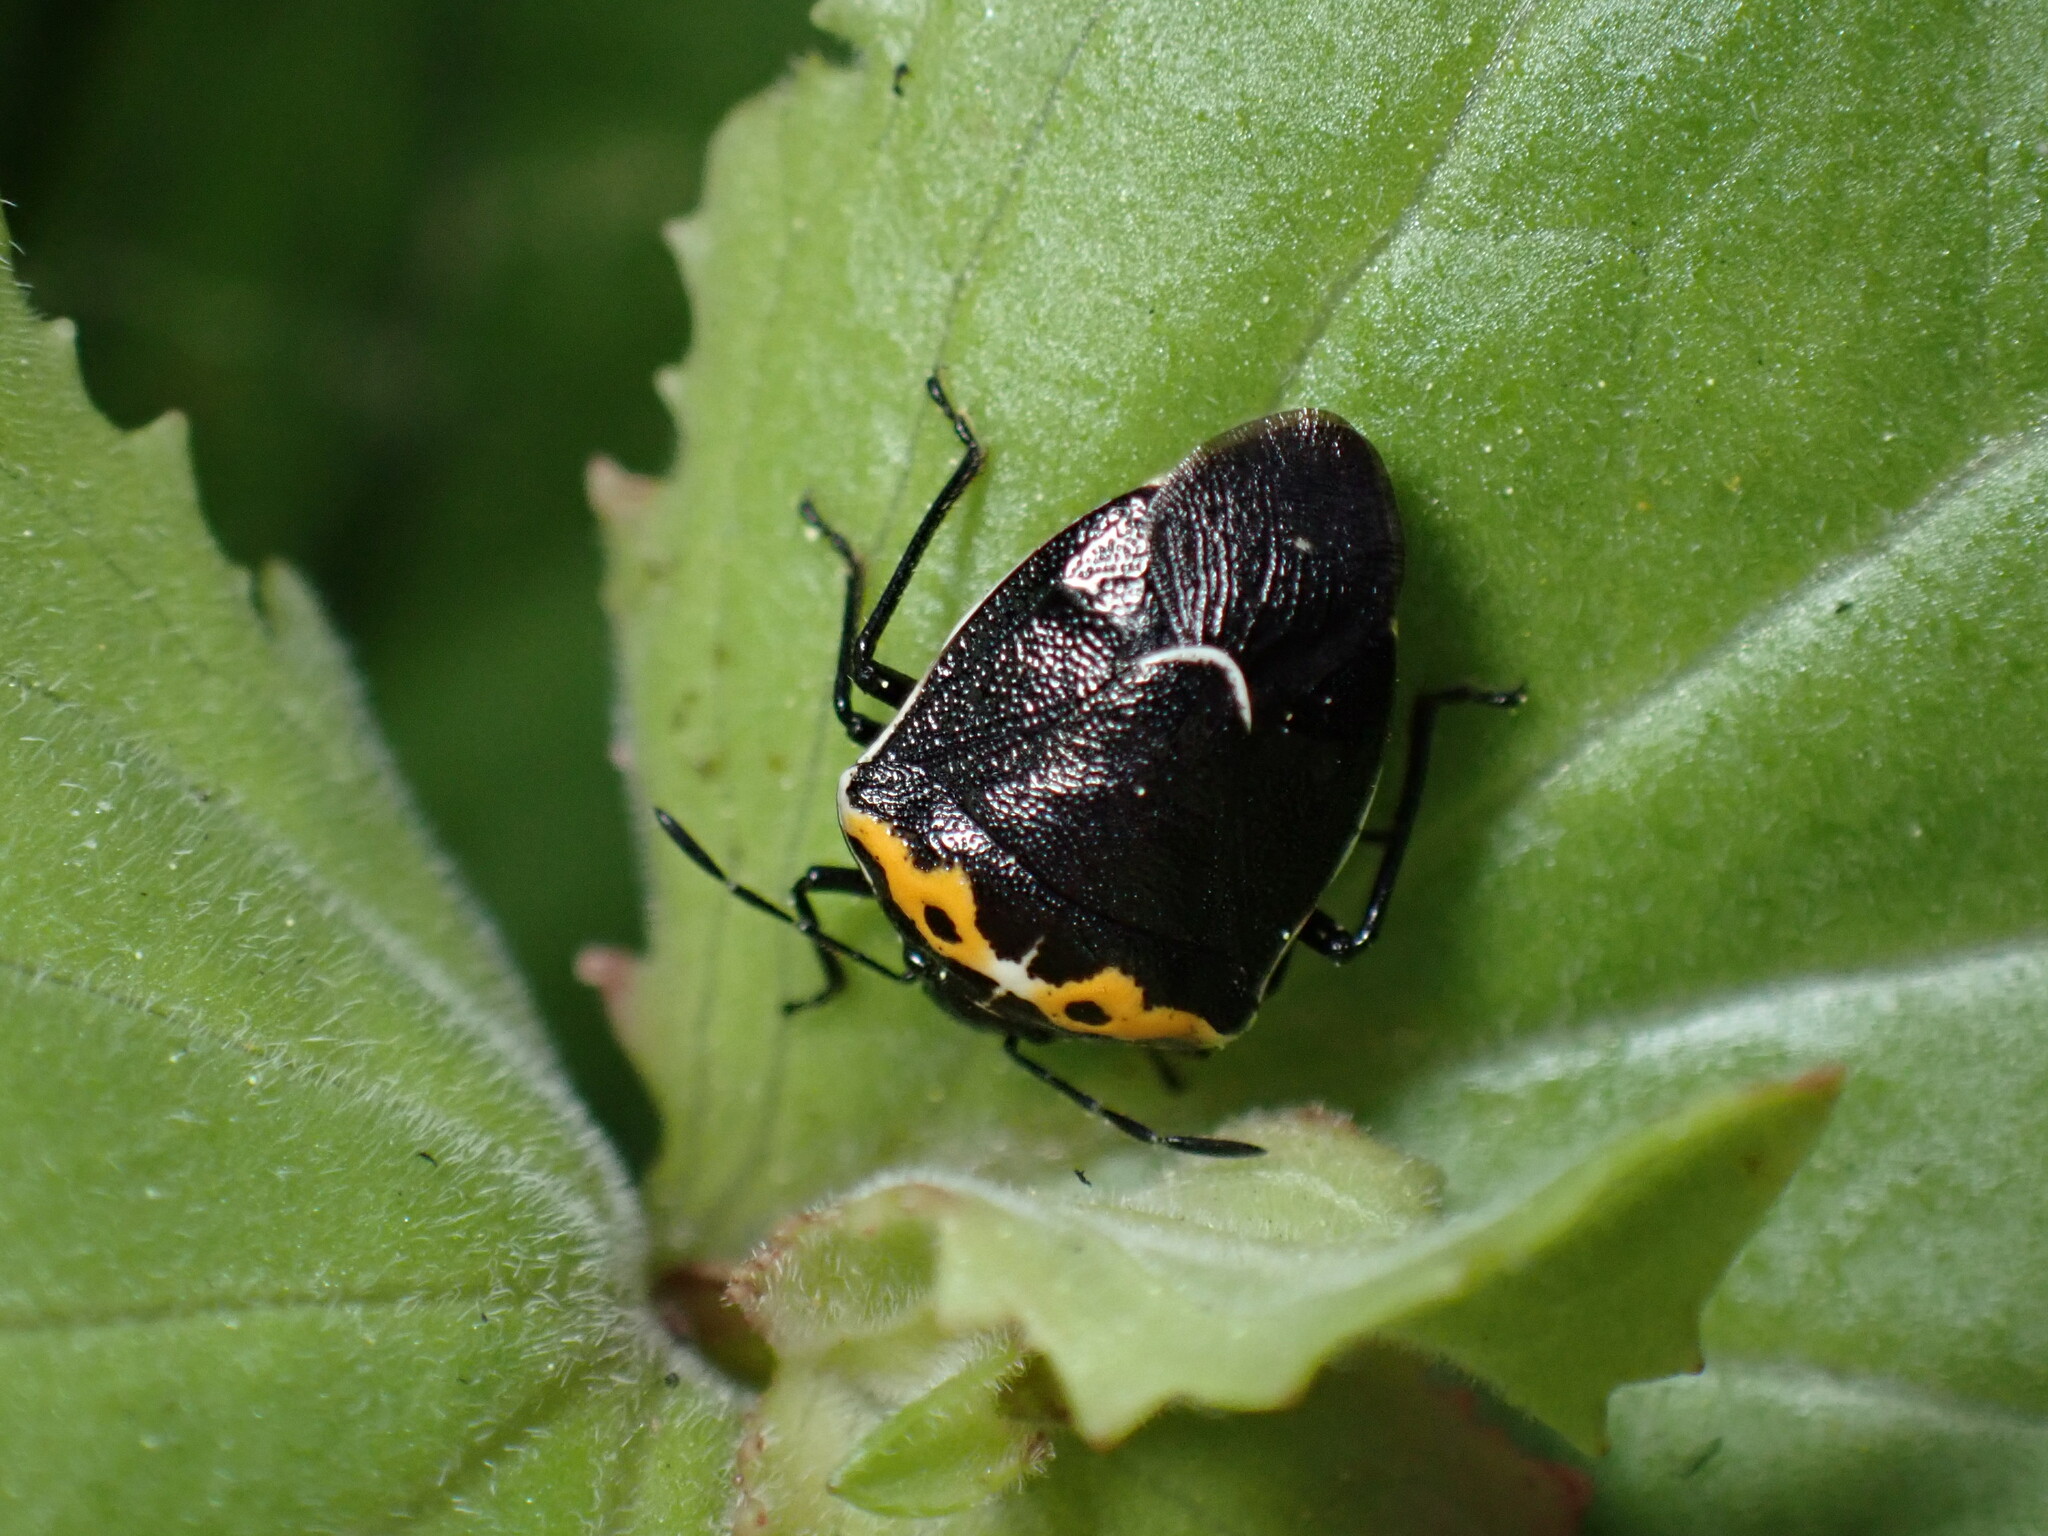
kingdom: Animalia
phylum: Arthropoda
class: Insecta
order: Hemiptera
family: Pentatomidae
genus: Cosmopepla
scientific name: Cosmopepla conspicillaris
